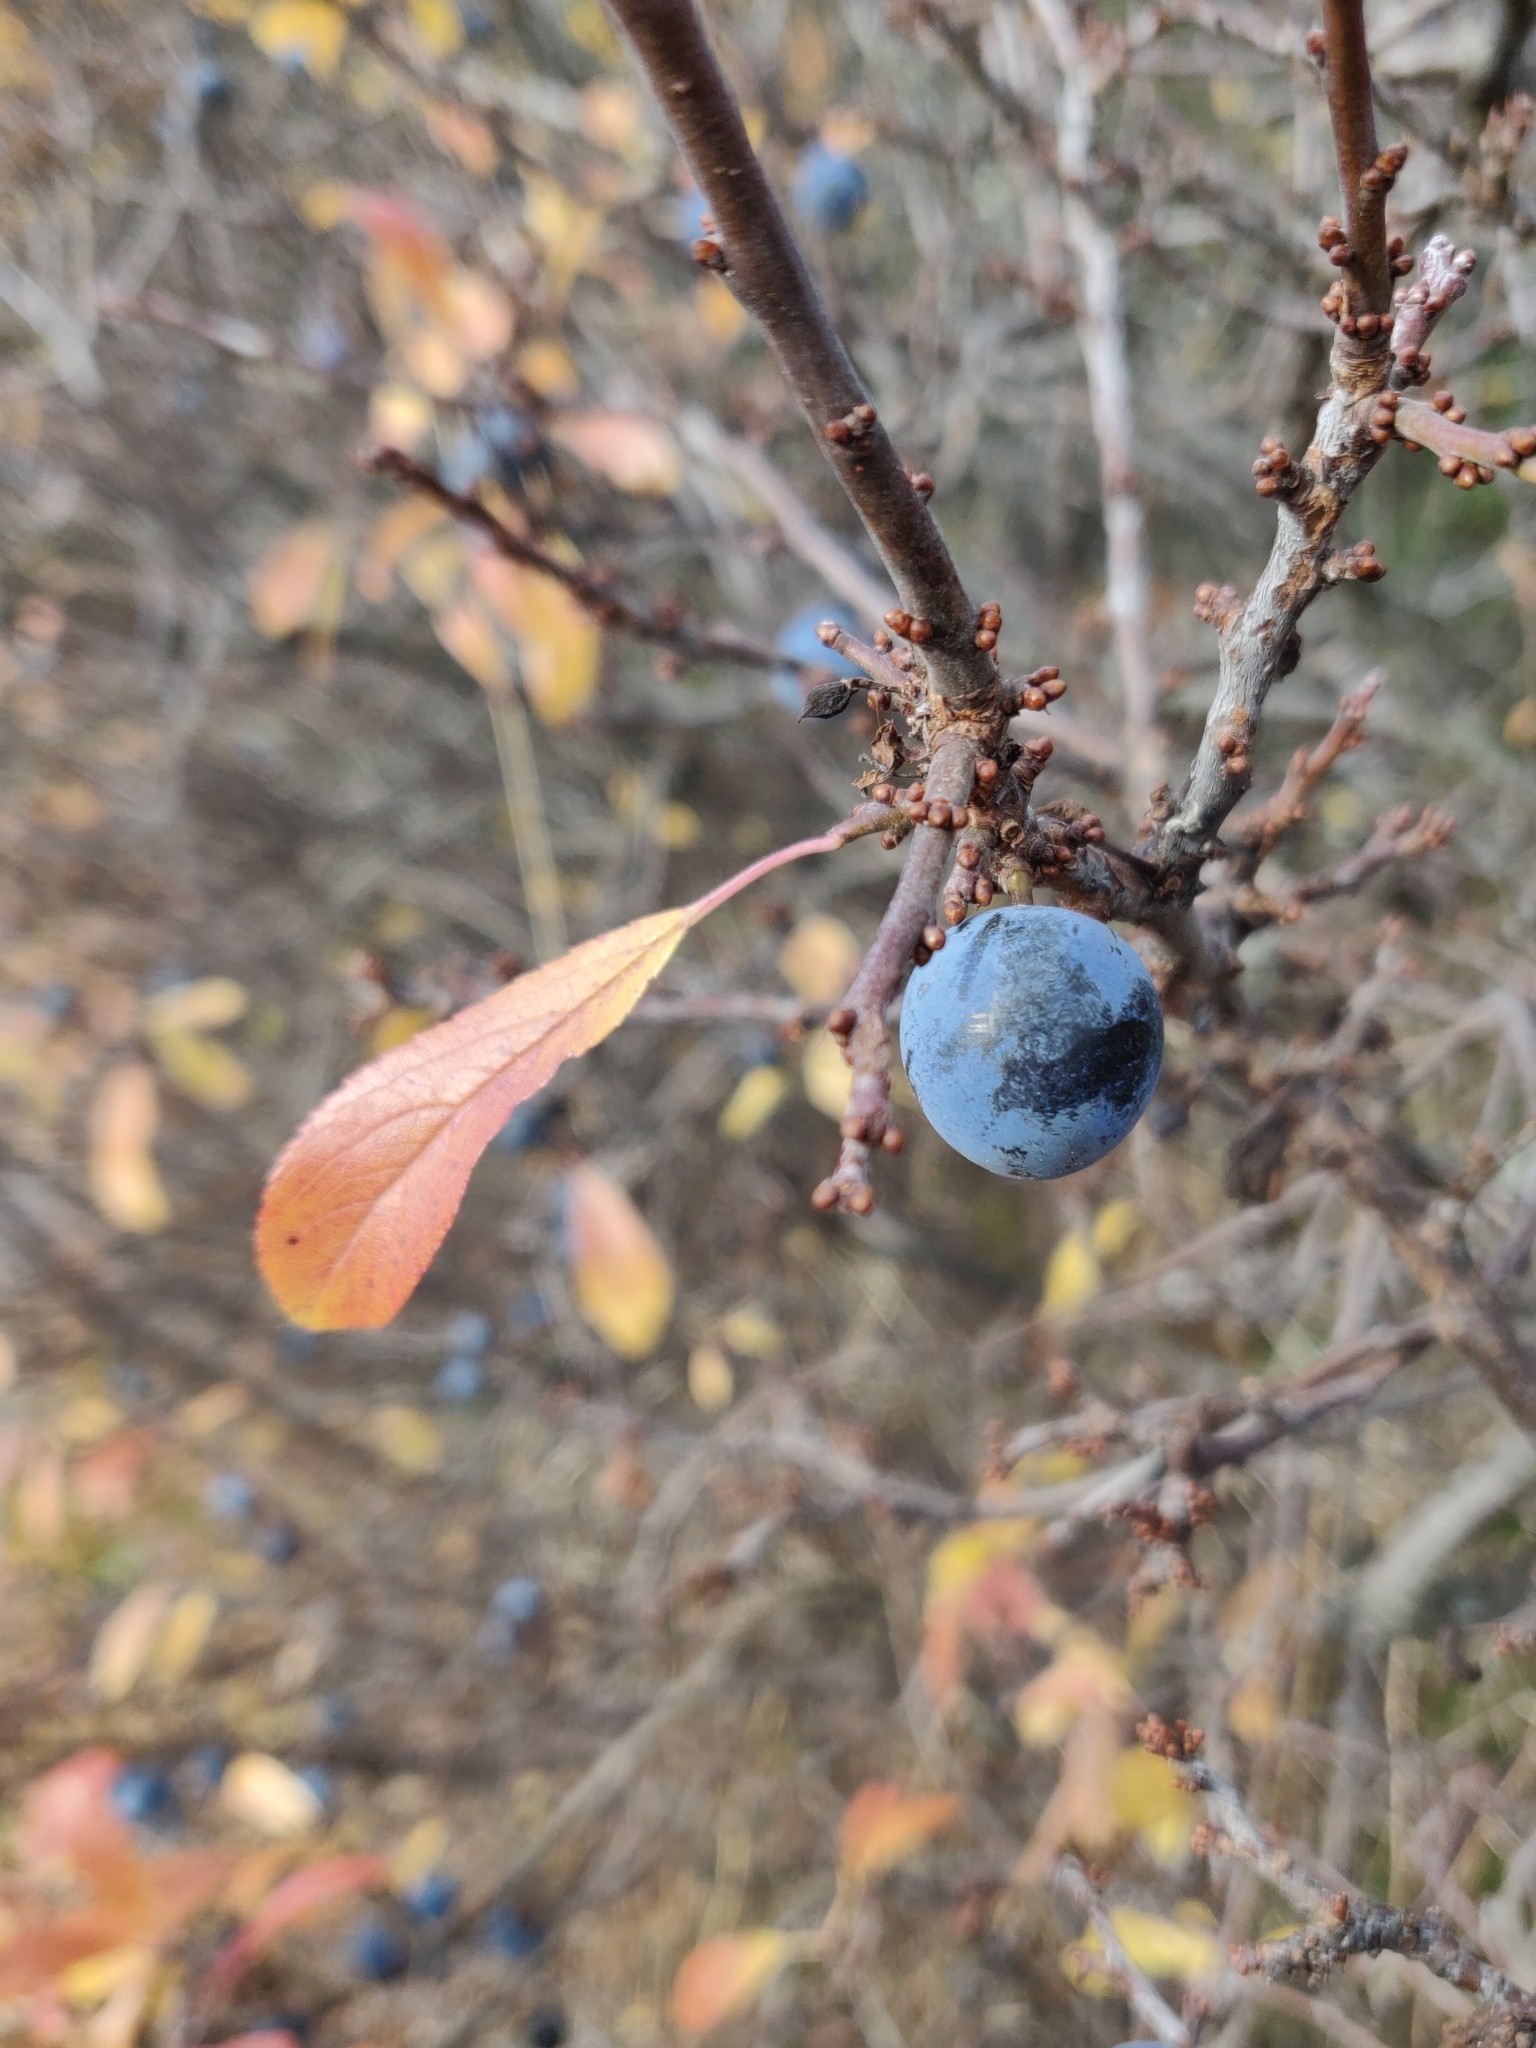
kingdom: Plantae
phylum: Tracheophyta
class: Magnoliopsida
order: Rosales
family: Rosaceae
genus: Prunus
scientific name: Prunus spinosa
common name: Blackthorn
